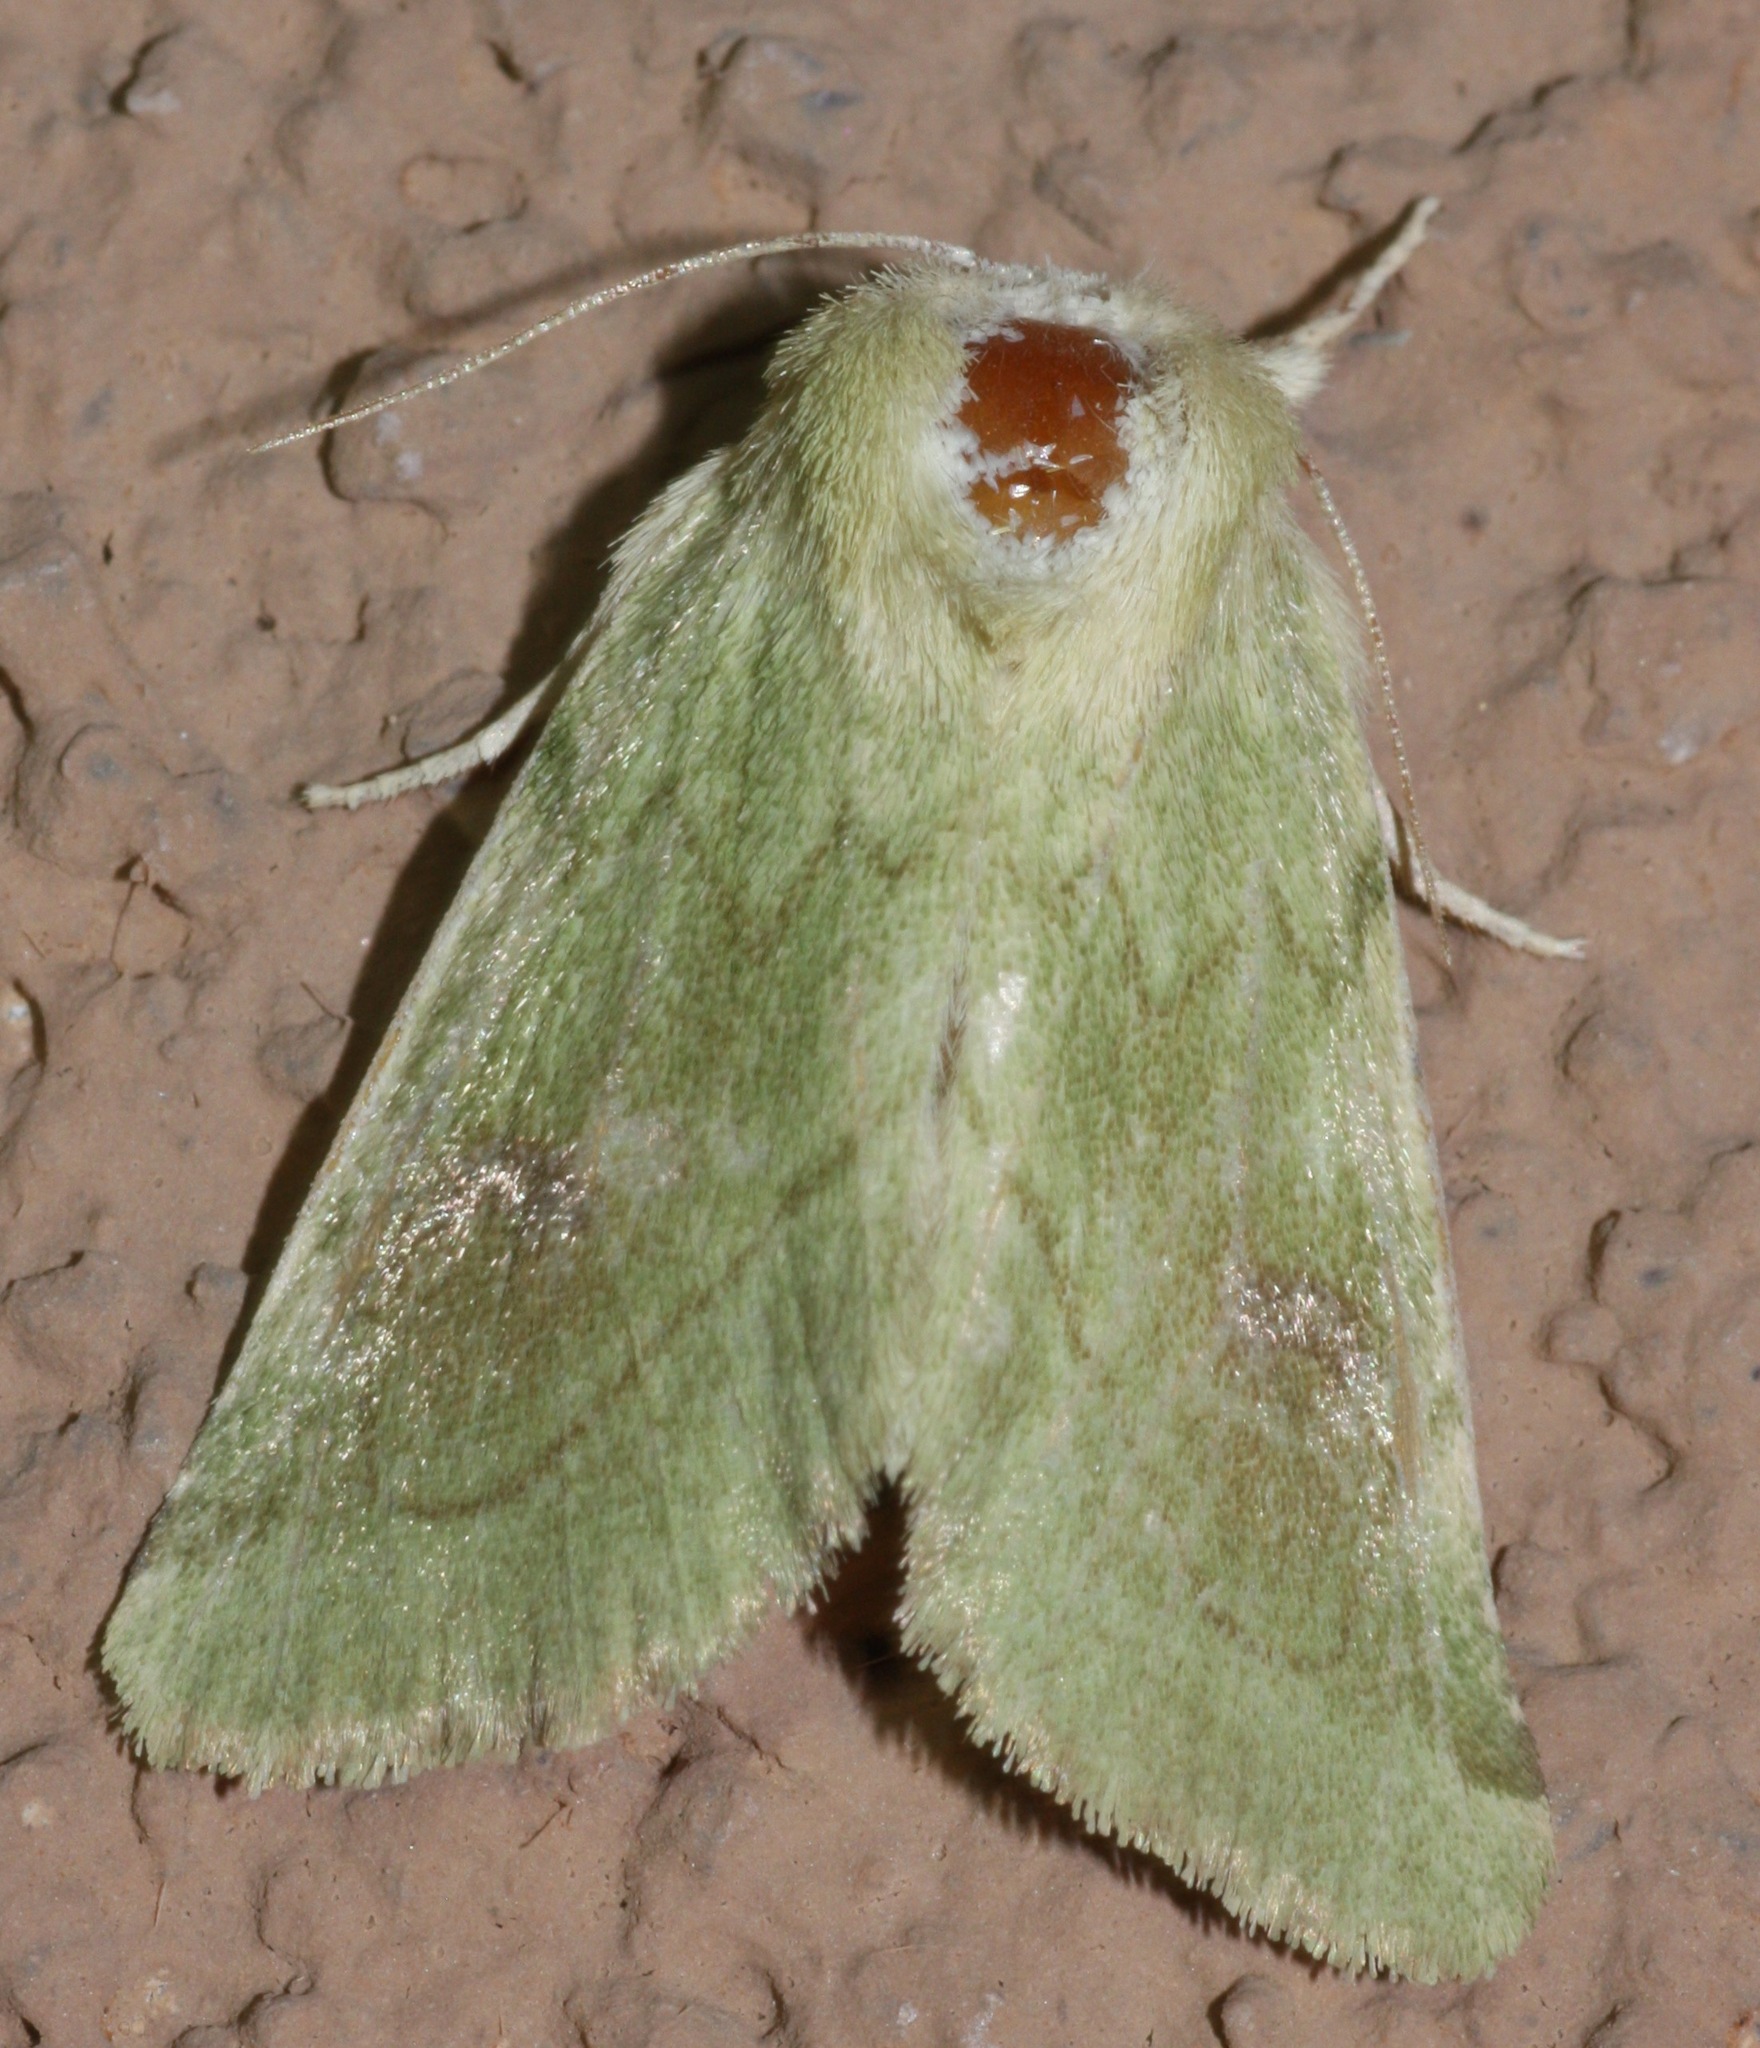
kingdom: Animalia
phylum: Arthropoda
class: Insecta
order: Lepidoptera
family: Noctuidae
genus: Zotheca
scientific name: Zotheca tranquilla
